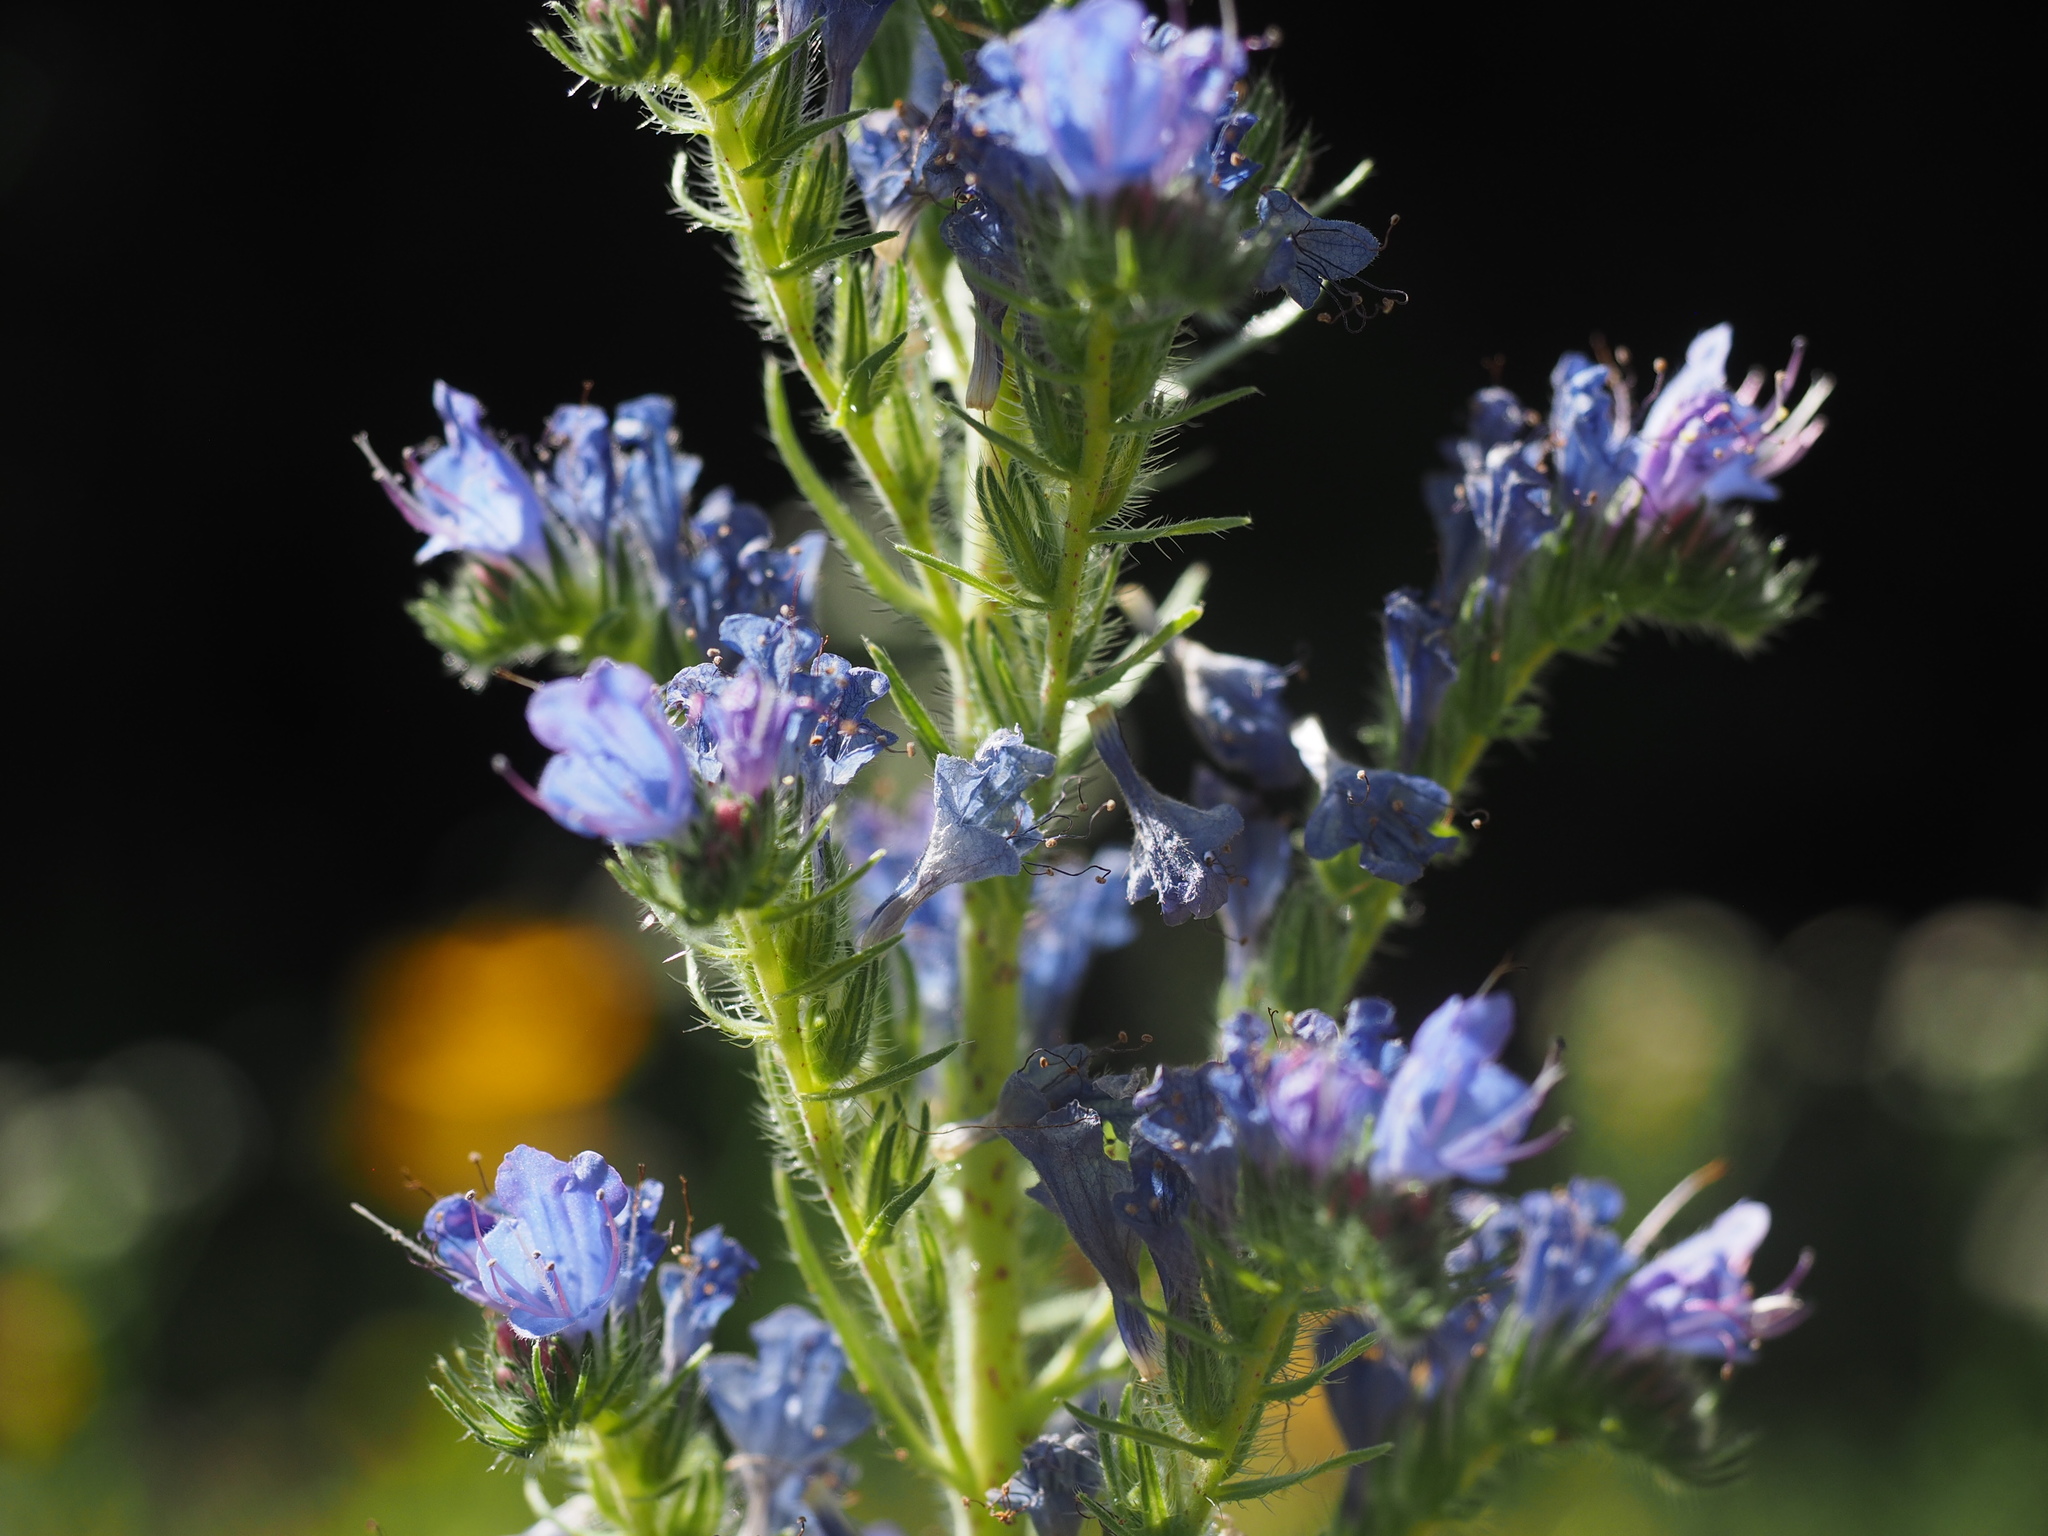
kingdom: Plantae
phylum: Tracheophyta
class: Magnoliopsida
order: Boraginales
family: Boraginaceae
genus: Echium
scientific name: Echium vulgare
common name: Common viper's bugloss
